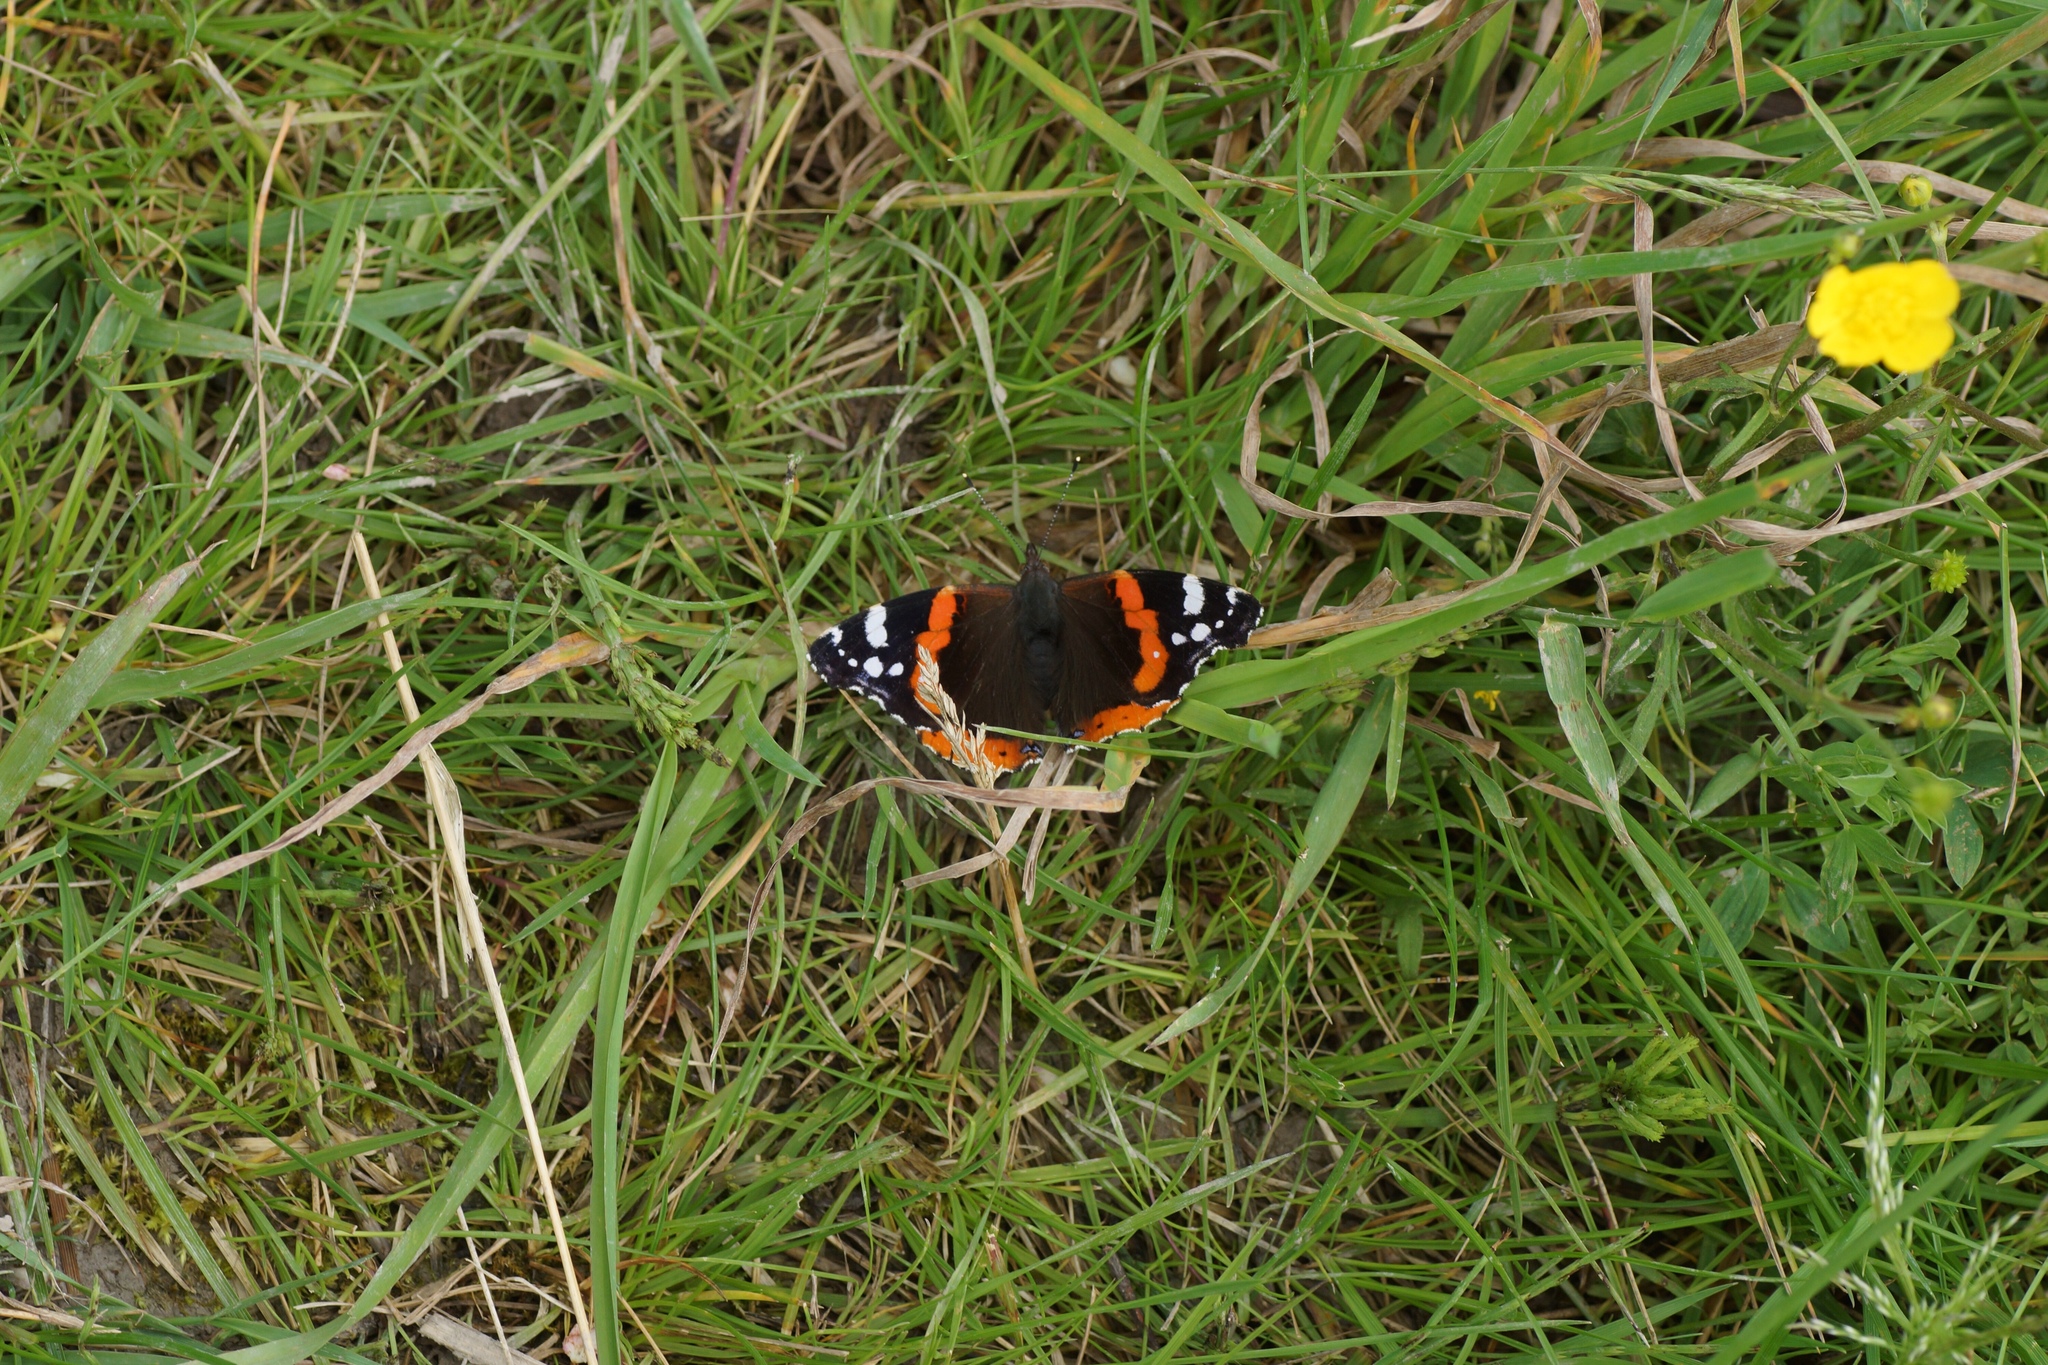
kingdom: Animalia
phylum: Arthropoda
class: Insecta
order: Lepidoptera
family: Nymphalidae
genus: Vanessa
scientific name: Vanessa atalanta
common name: Red admiral
